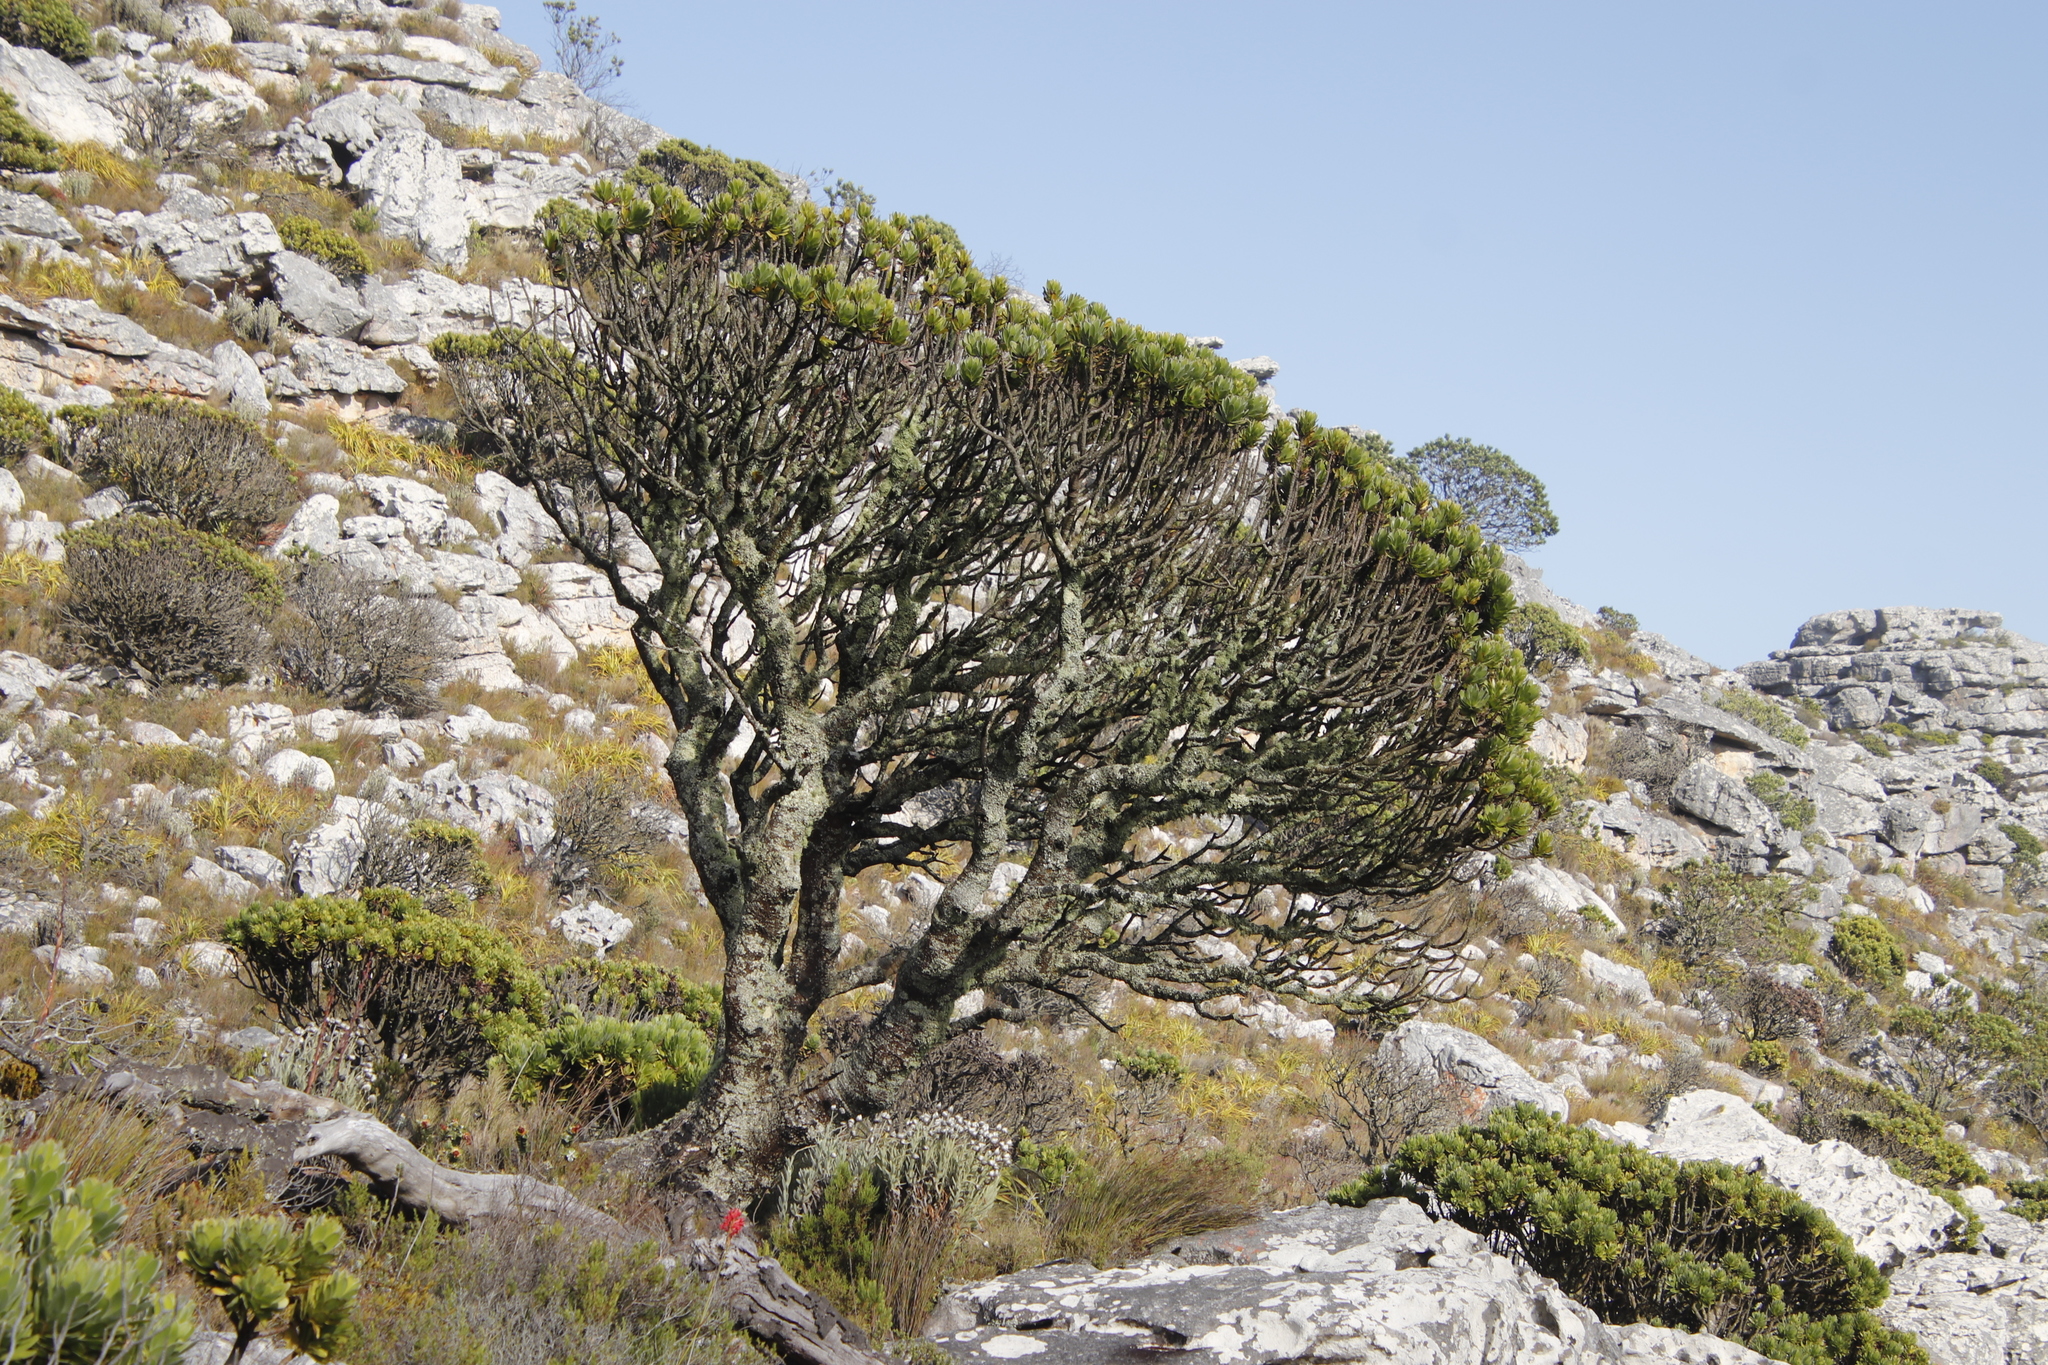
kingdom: Plantae
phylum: Tracheophyta
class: Magnoliopsida
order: Proteales
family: Proteaceae
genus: Mimetes
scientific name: Mimetes fimbriifolius
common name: Fringed bottlebrush
